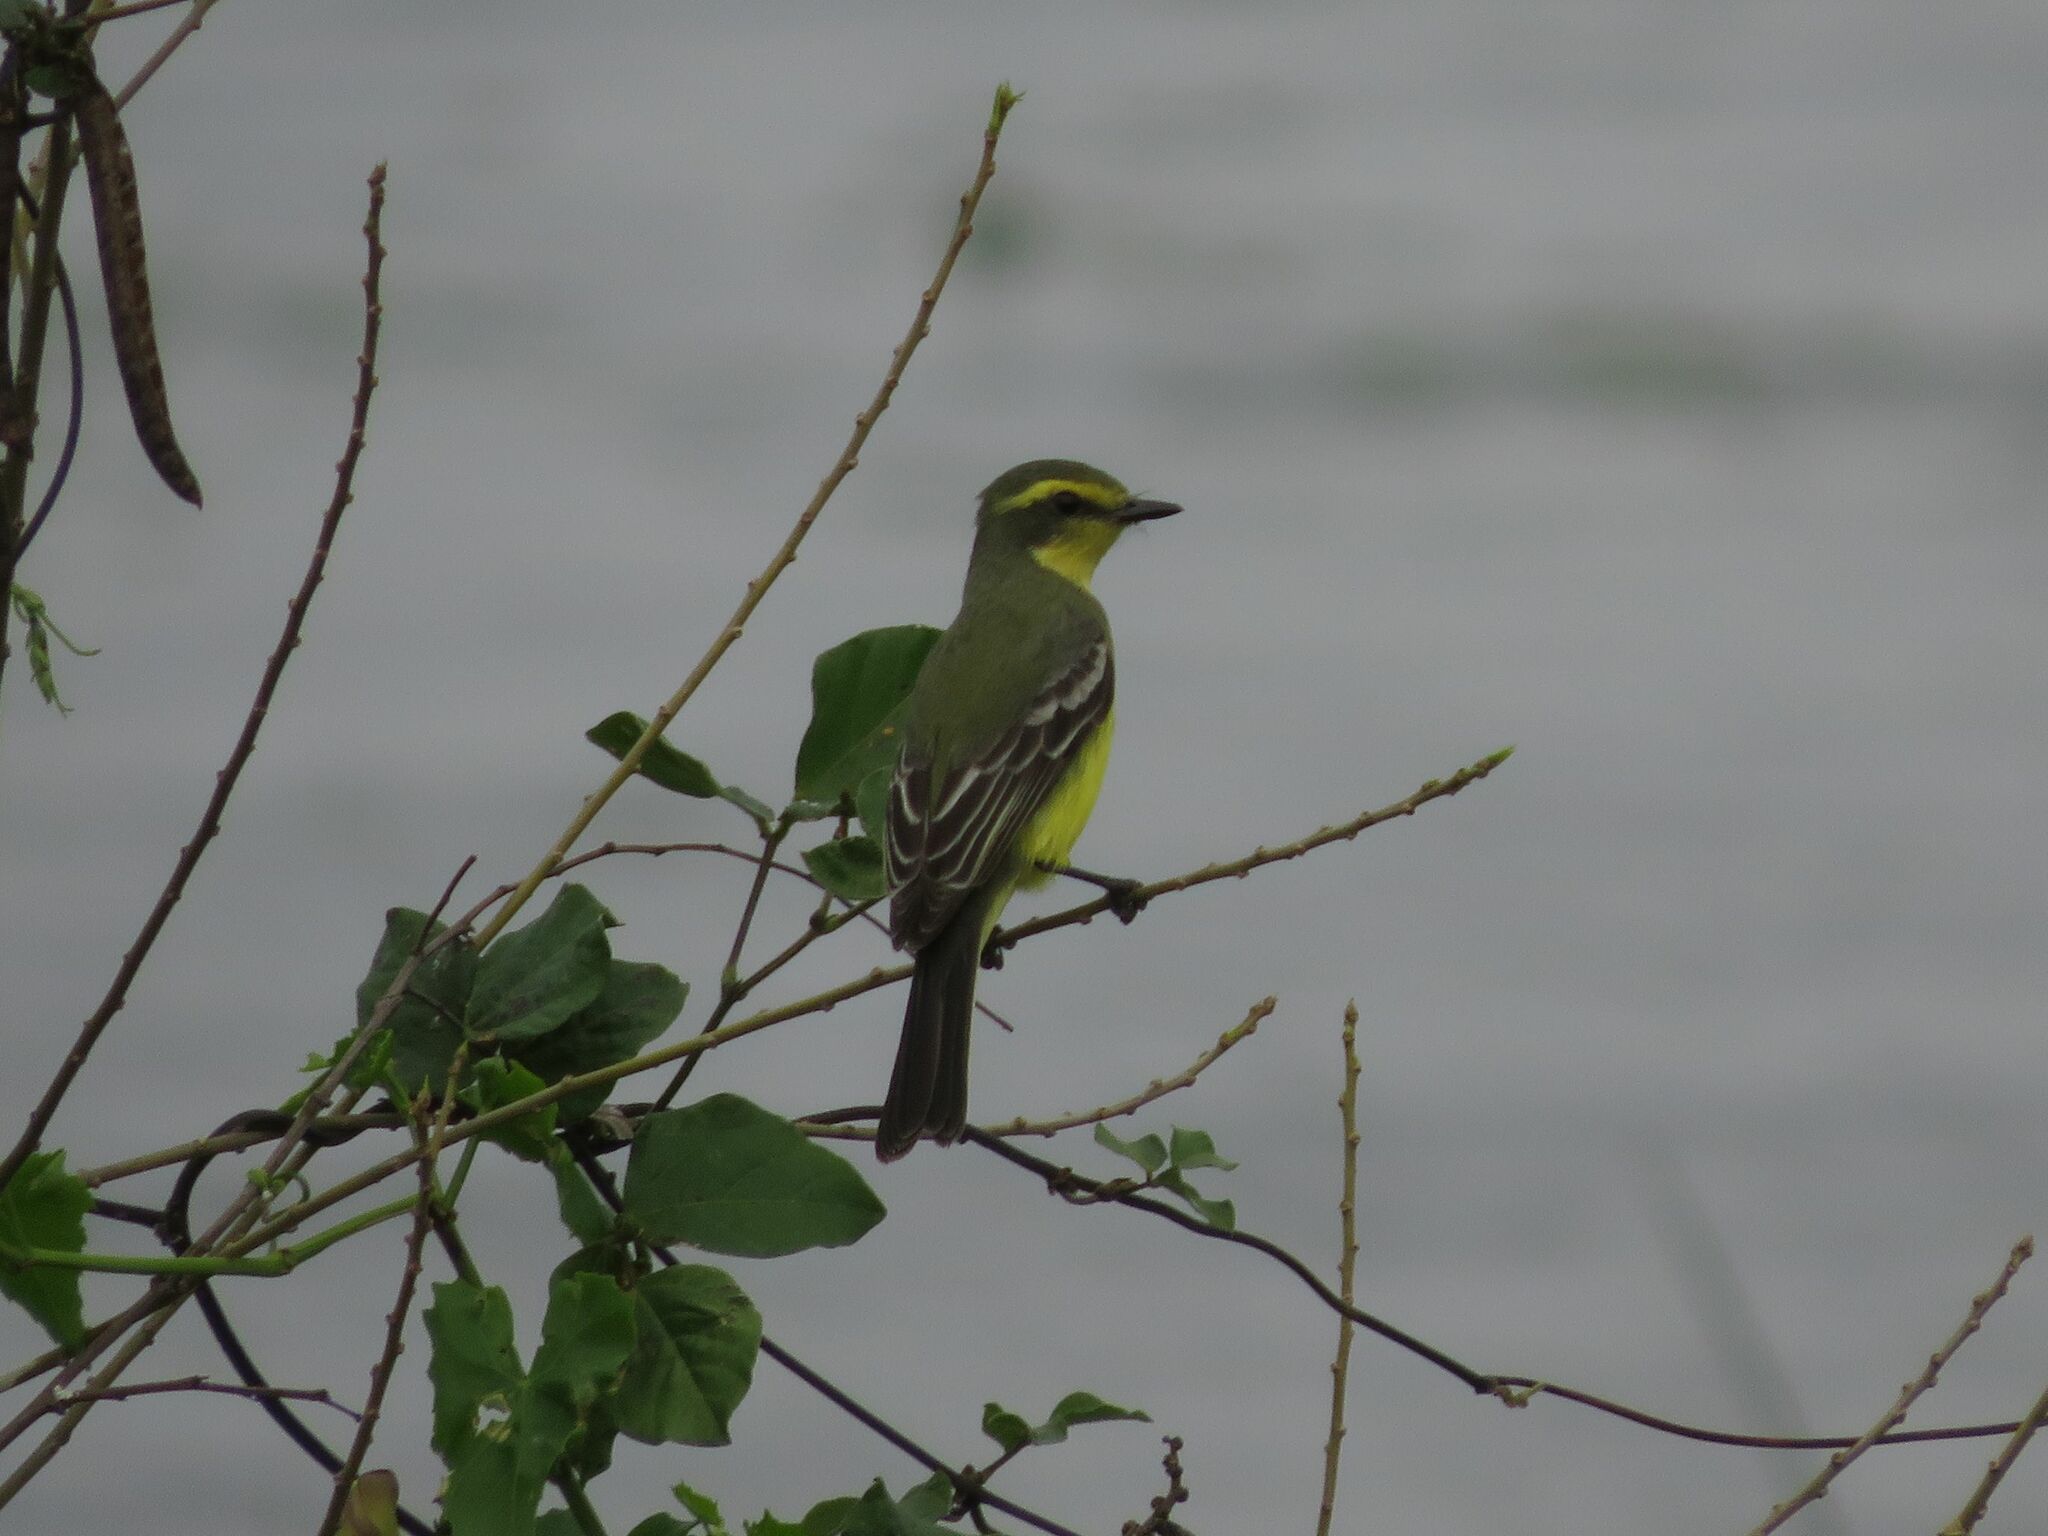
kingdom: Animalia
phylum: Chordata
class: Aves
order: Passeriformes
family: Tyrannidae
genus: Satrapa
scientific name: Satrapa icterophrys
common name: Yellow-browed tyrant
